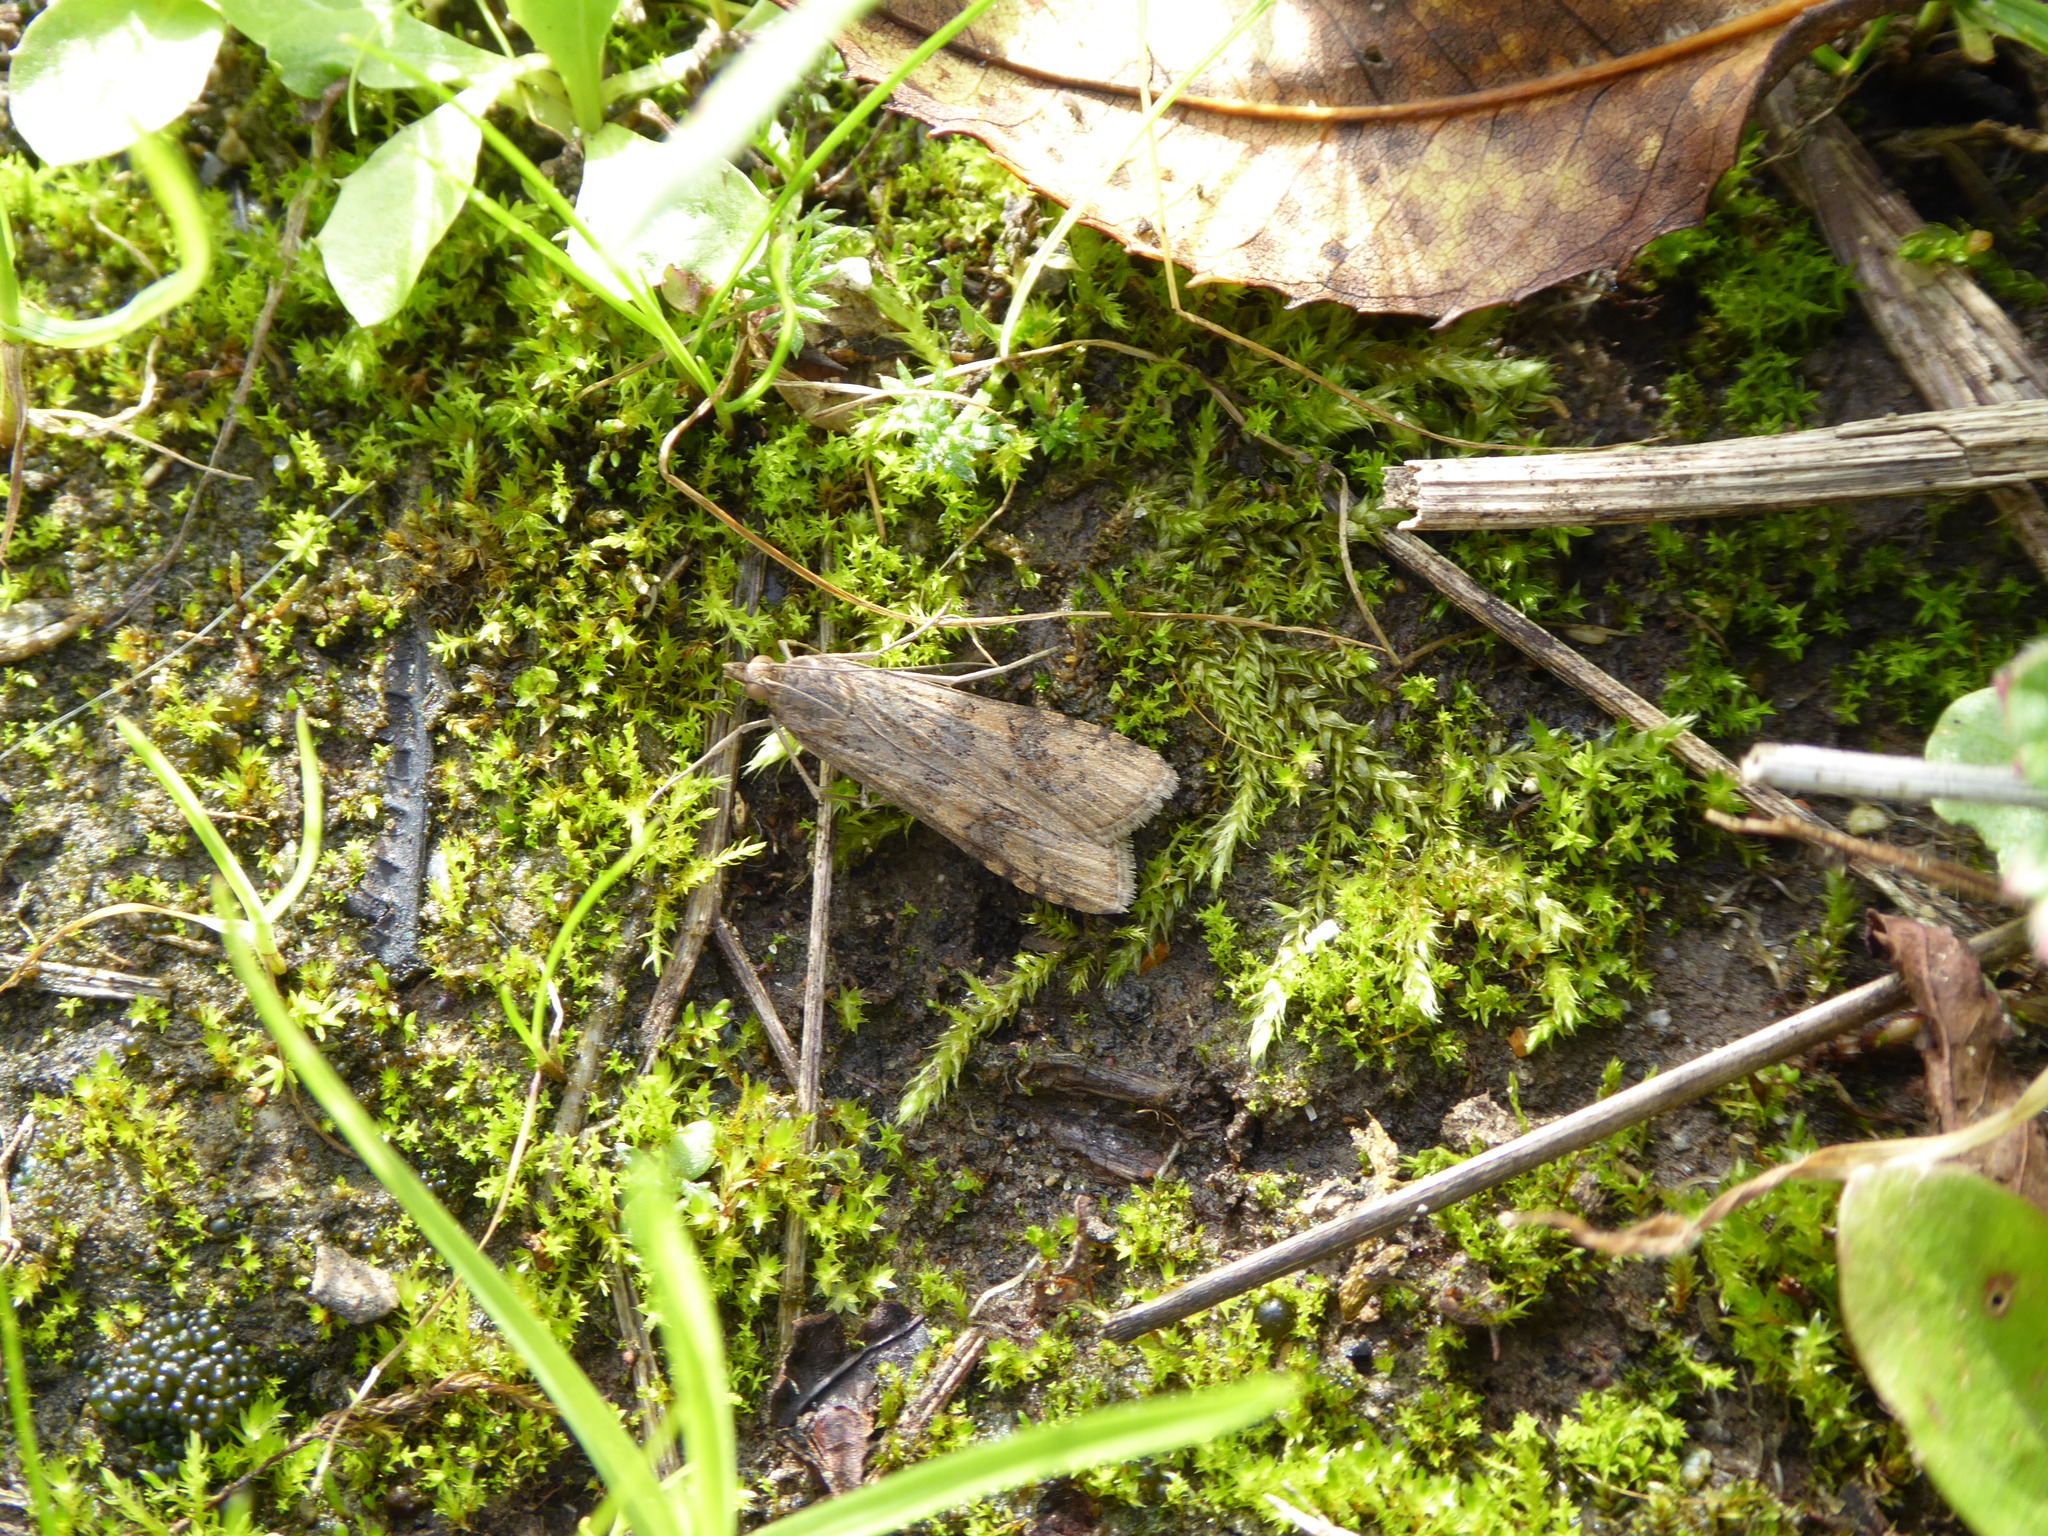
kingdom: Animalia
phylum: Arthropoda
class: Insecta
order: Lepidoptera
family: Crambidae
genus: Nomophila
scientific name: Nomophila noctuella
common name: Rush veneer
